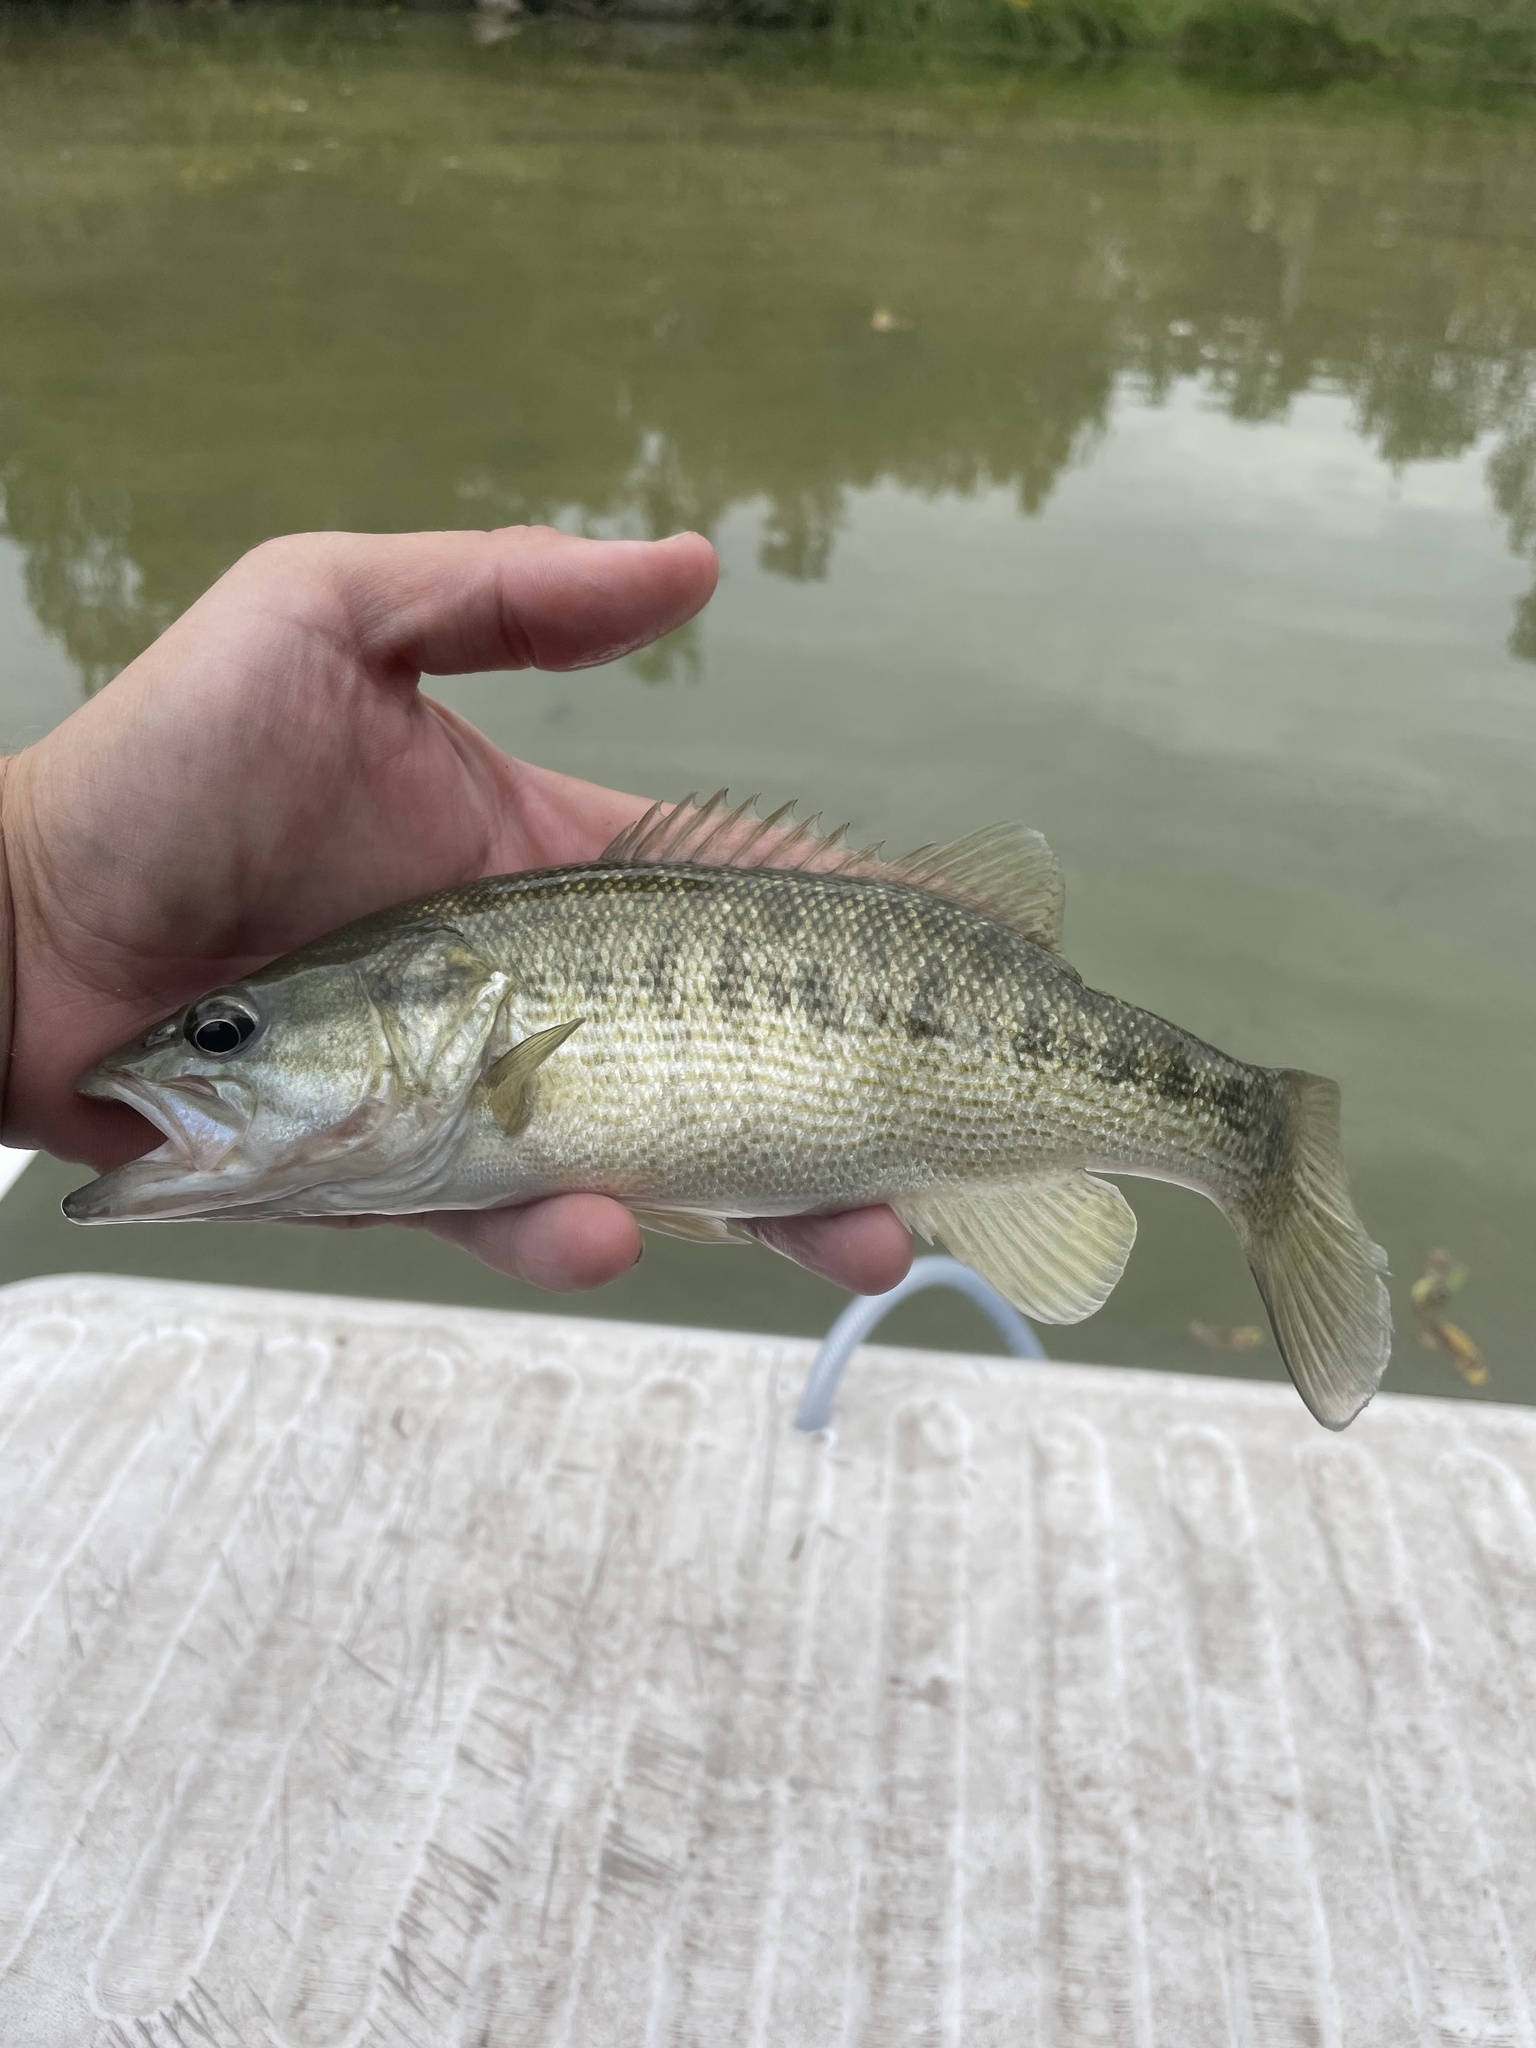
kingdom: Animalia
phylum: Chordata
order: Perciformes
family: Centrarchidae
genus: Micropterus
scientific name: Micropterus treculii
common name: Guadalupe bass
